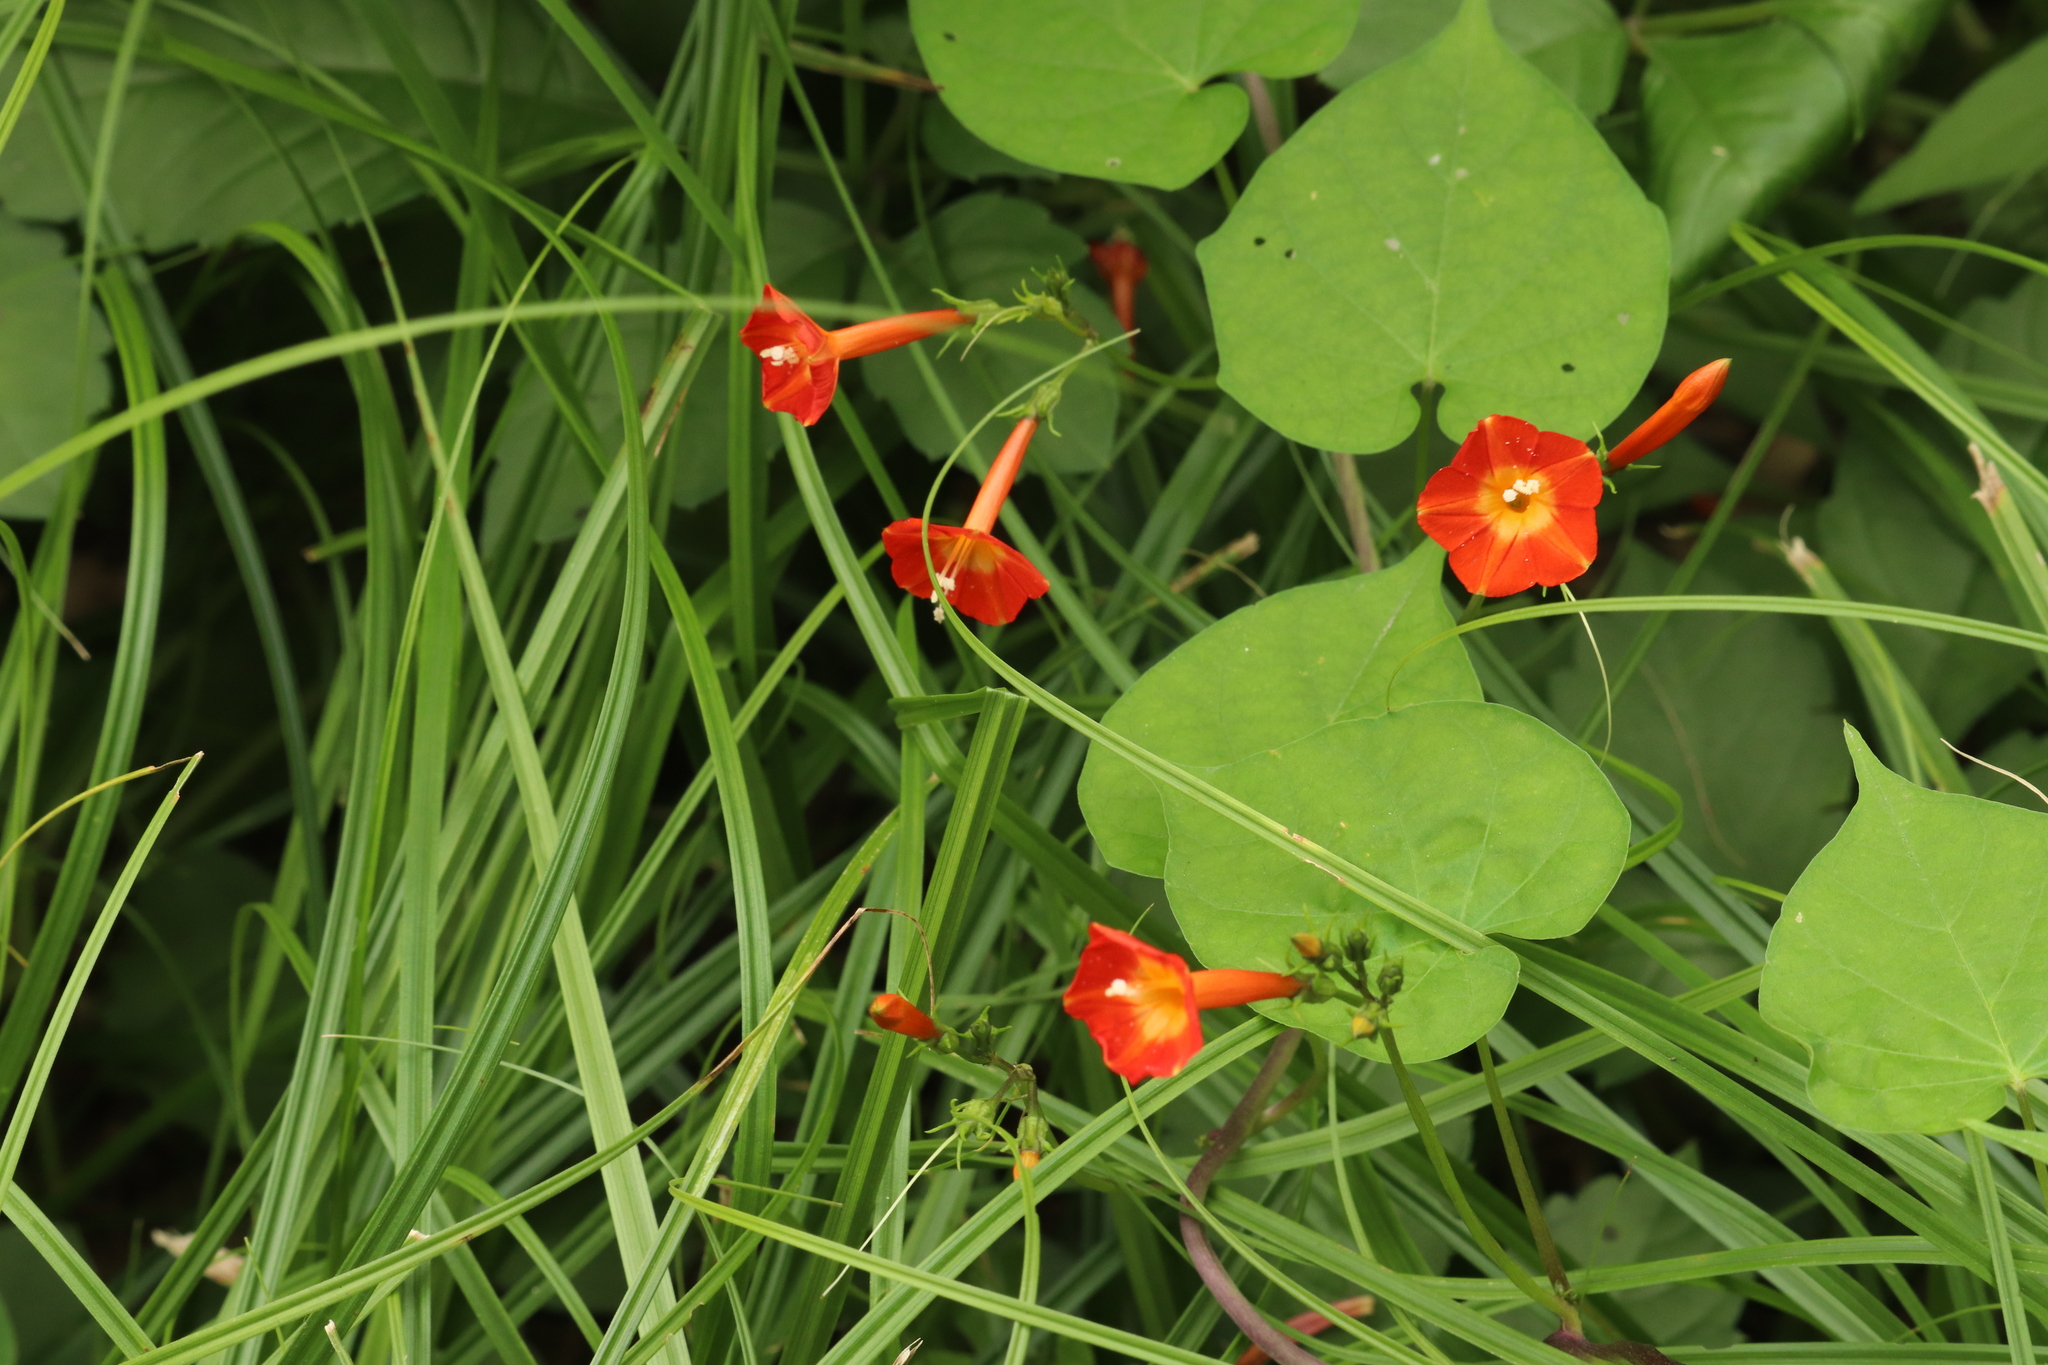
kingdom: Plantae
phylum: Tracheophyta
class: Magnoliopsida
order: Solanales
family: Convolvulaceae
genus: Ipomoea
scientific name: Ipomoea coccinea
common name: Red morning-glory
